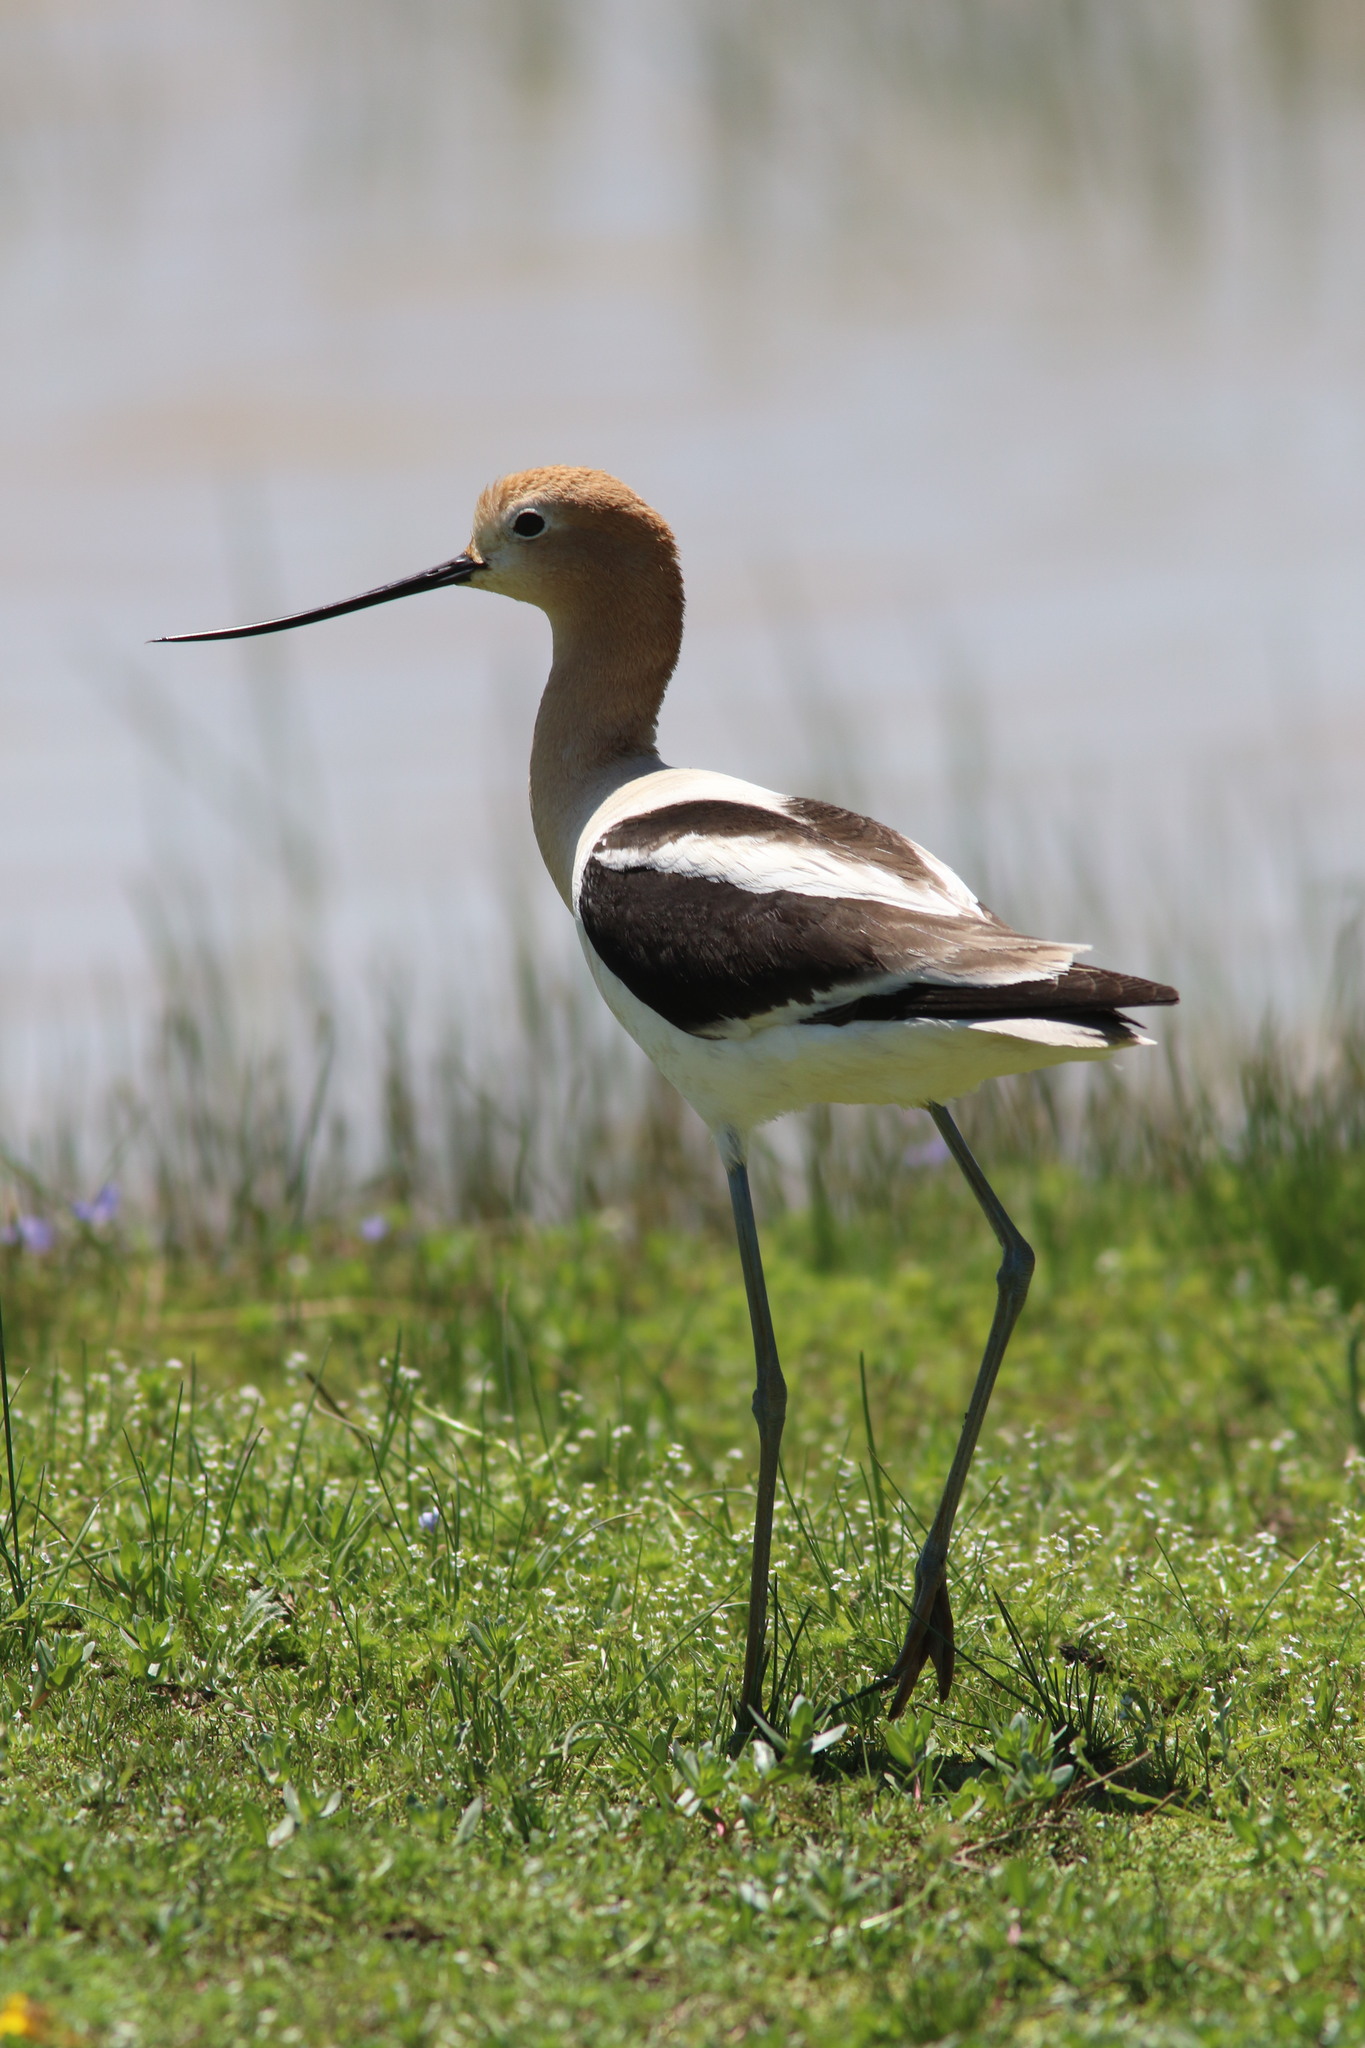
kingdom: Animalia
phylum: Chordata
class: Aves
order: Charadriiformes
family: Recurvirostridae
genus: Recurvirostra
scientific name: Recurvirostra americana
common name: American avocet
